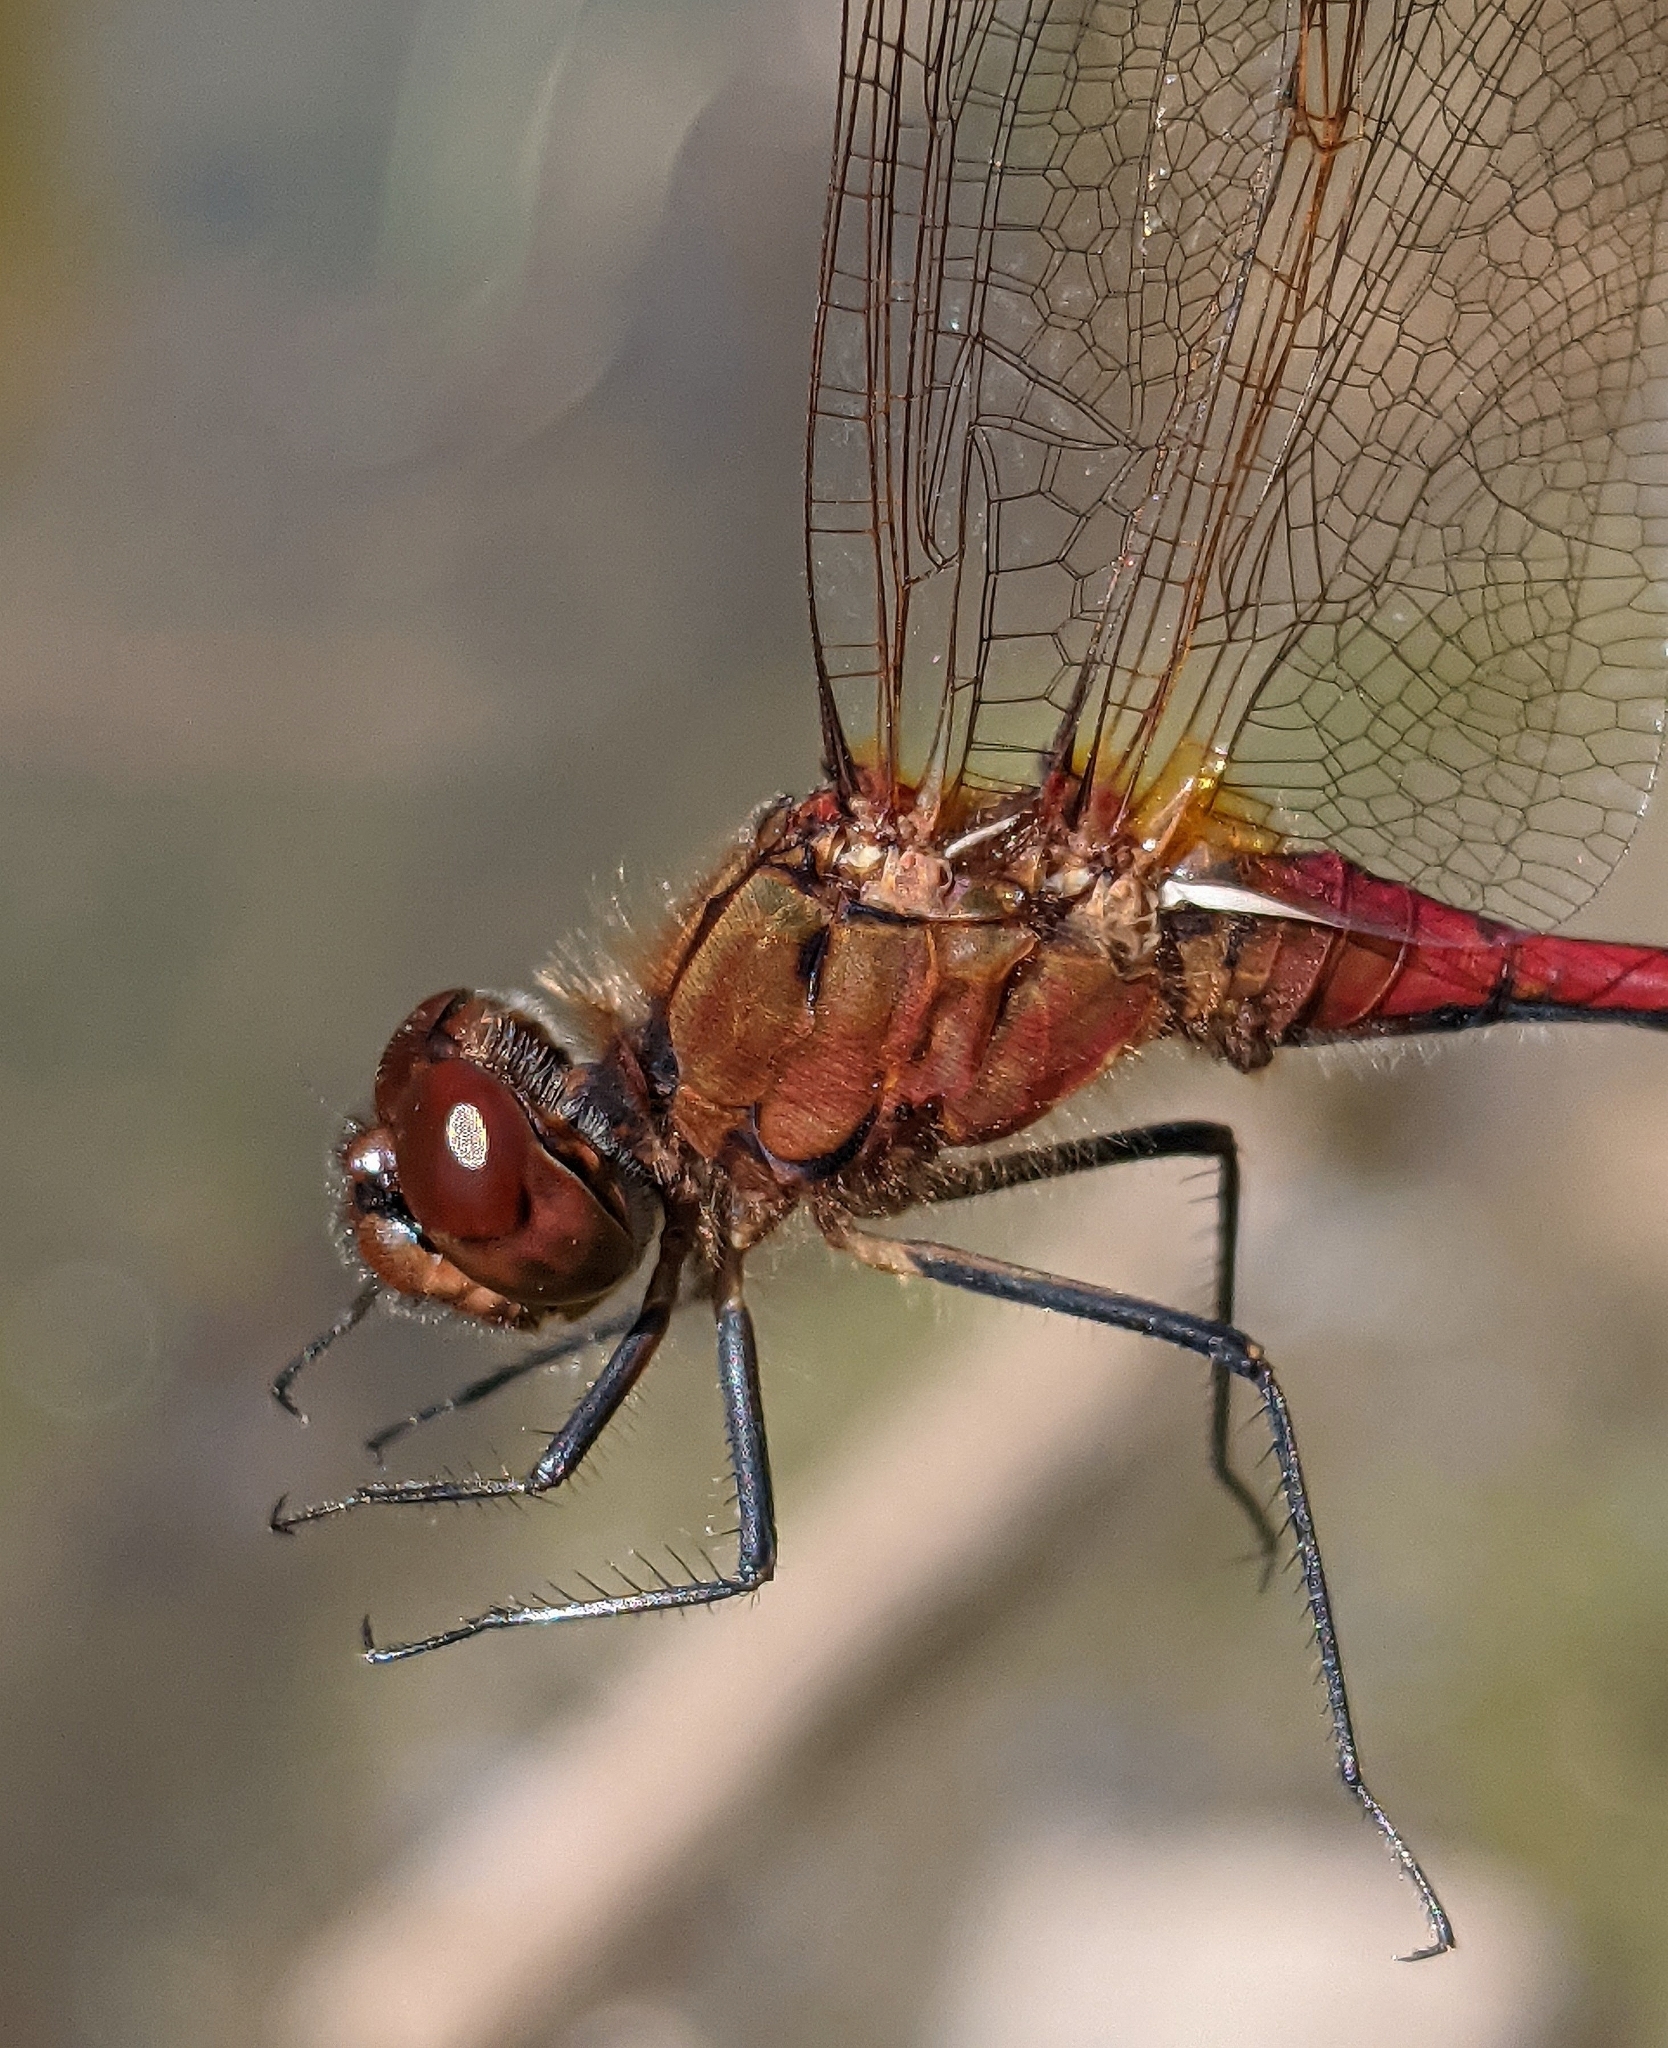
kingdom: Animalia
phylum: Arthropoda
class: Insecta
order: Odonata
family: Libellulidae
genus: Sympetrum
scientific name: Sympetrum costiferum
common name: Saffron-winged meadowhawk
